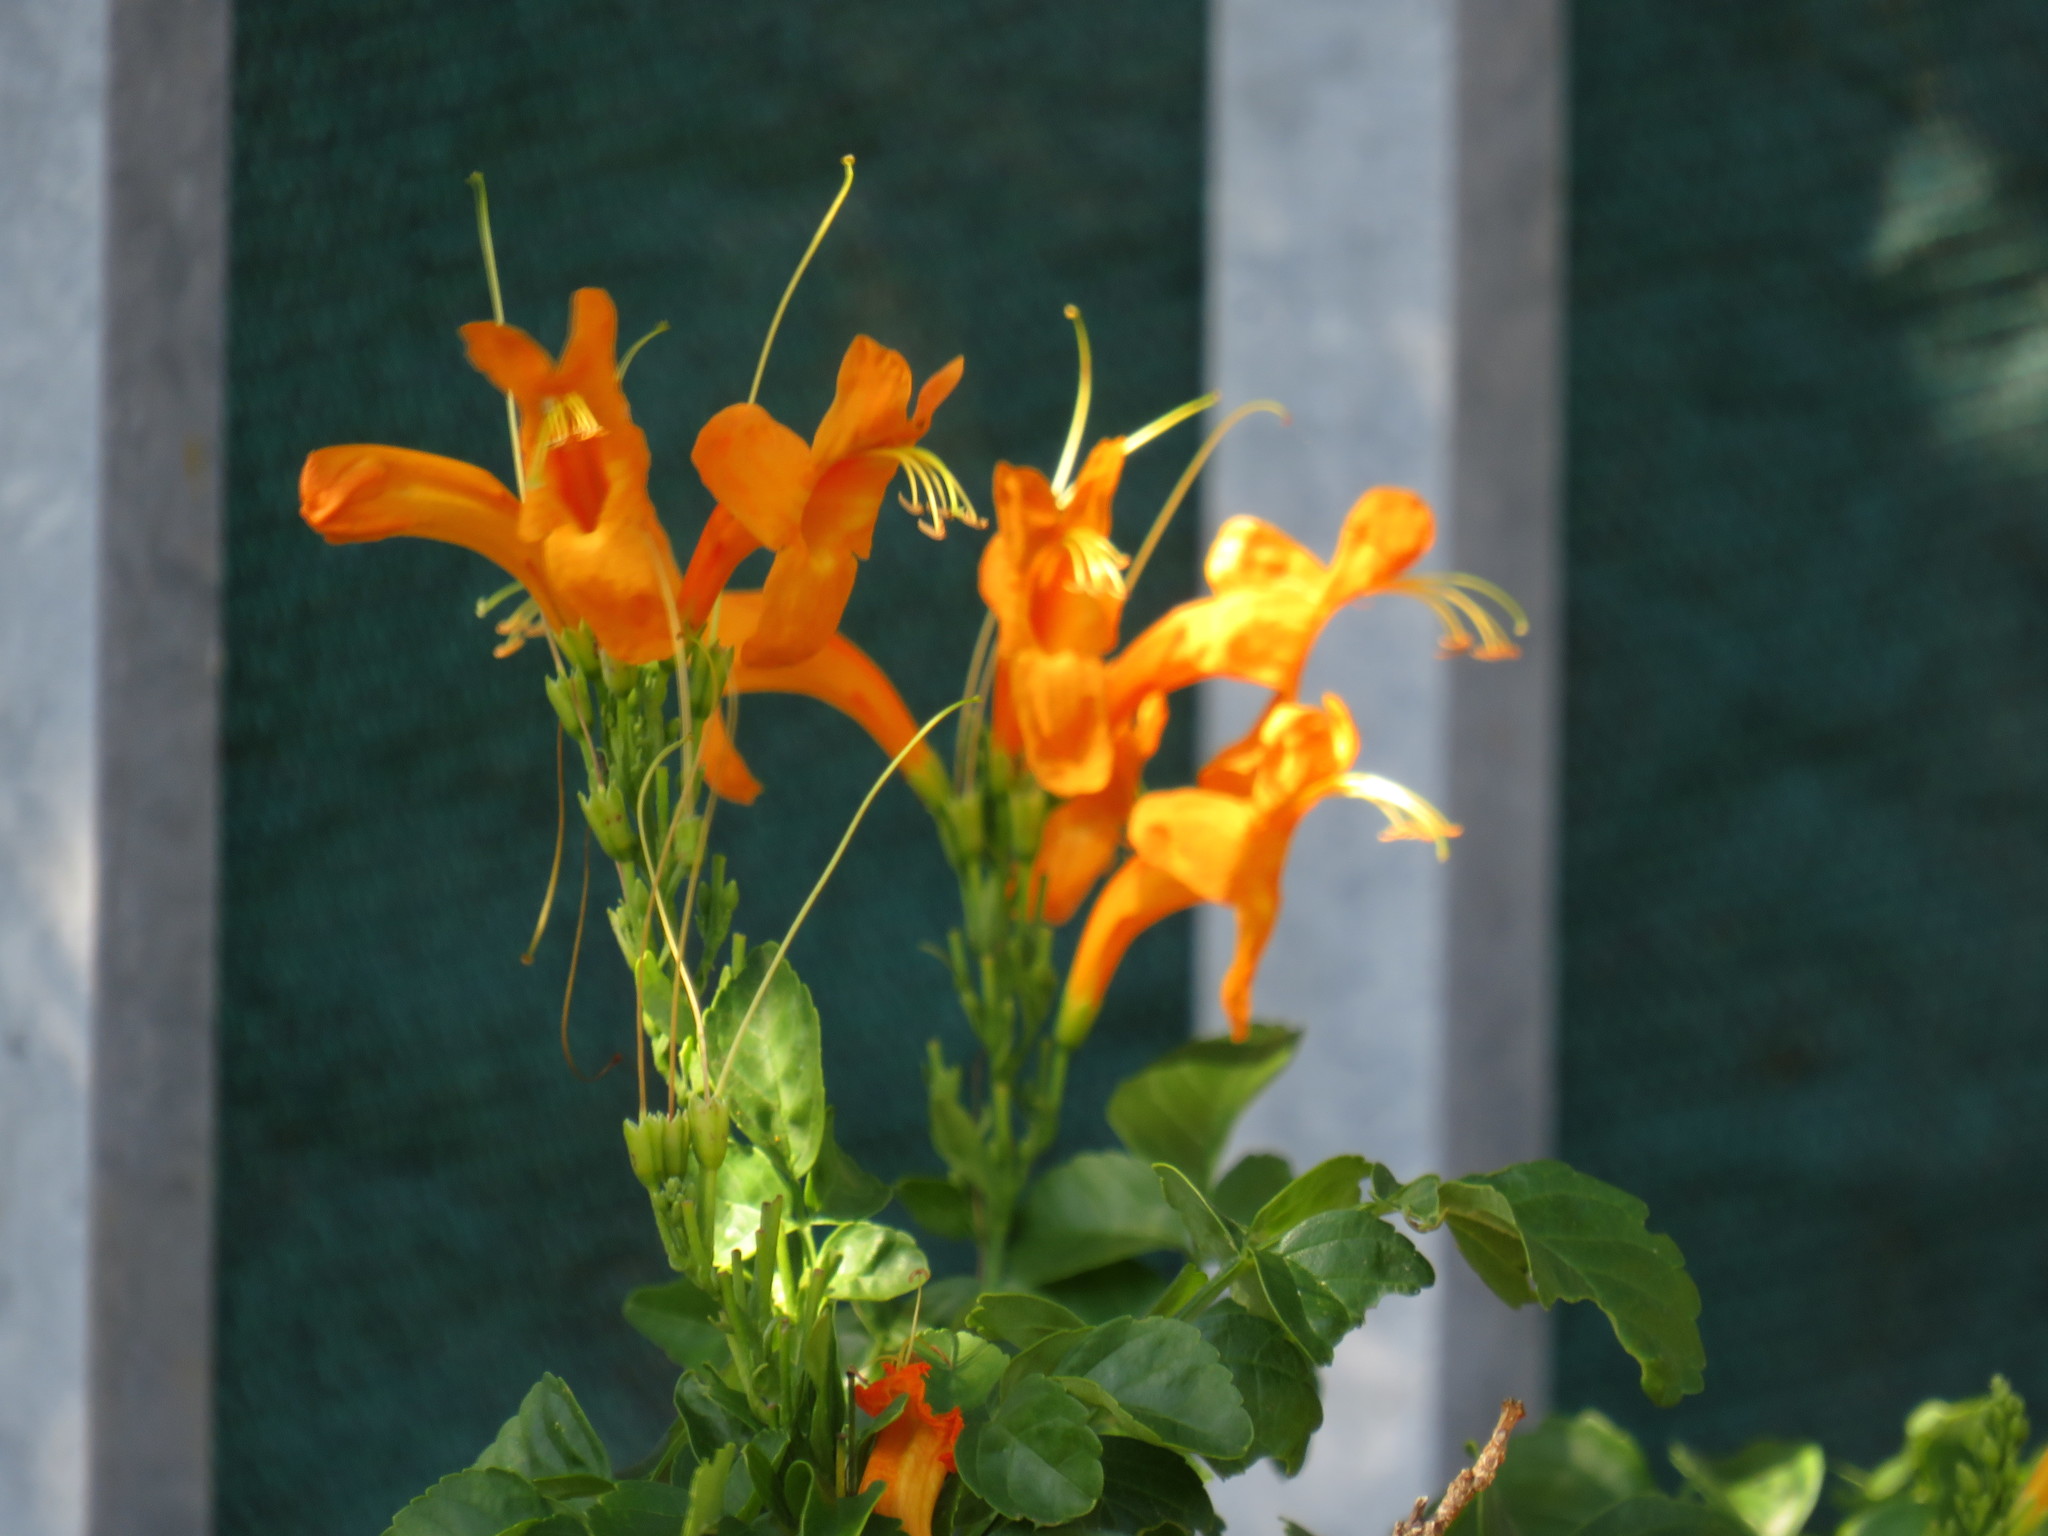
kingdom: Plantae
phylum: Tracheophyta
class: Magnoliopsida
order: Lamiales
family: Bignoniaceae
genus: Tecomaria
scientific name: Tecomaria capensis
